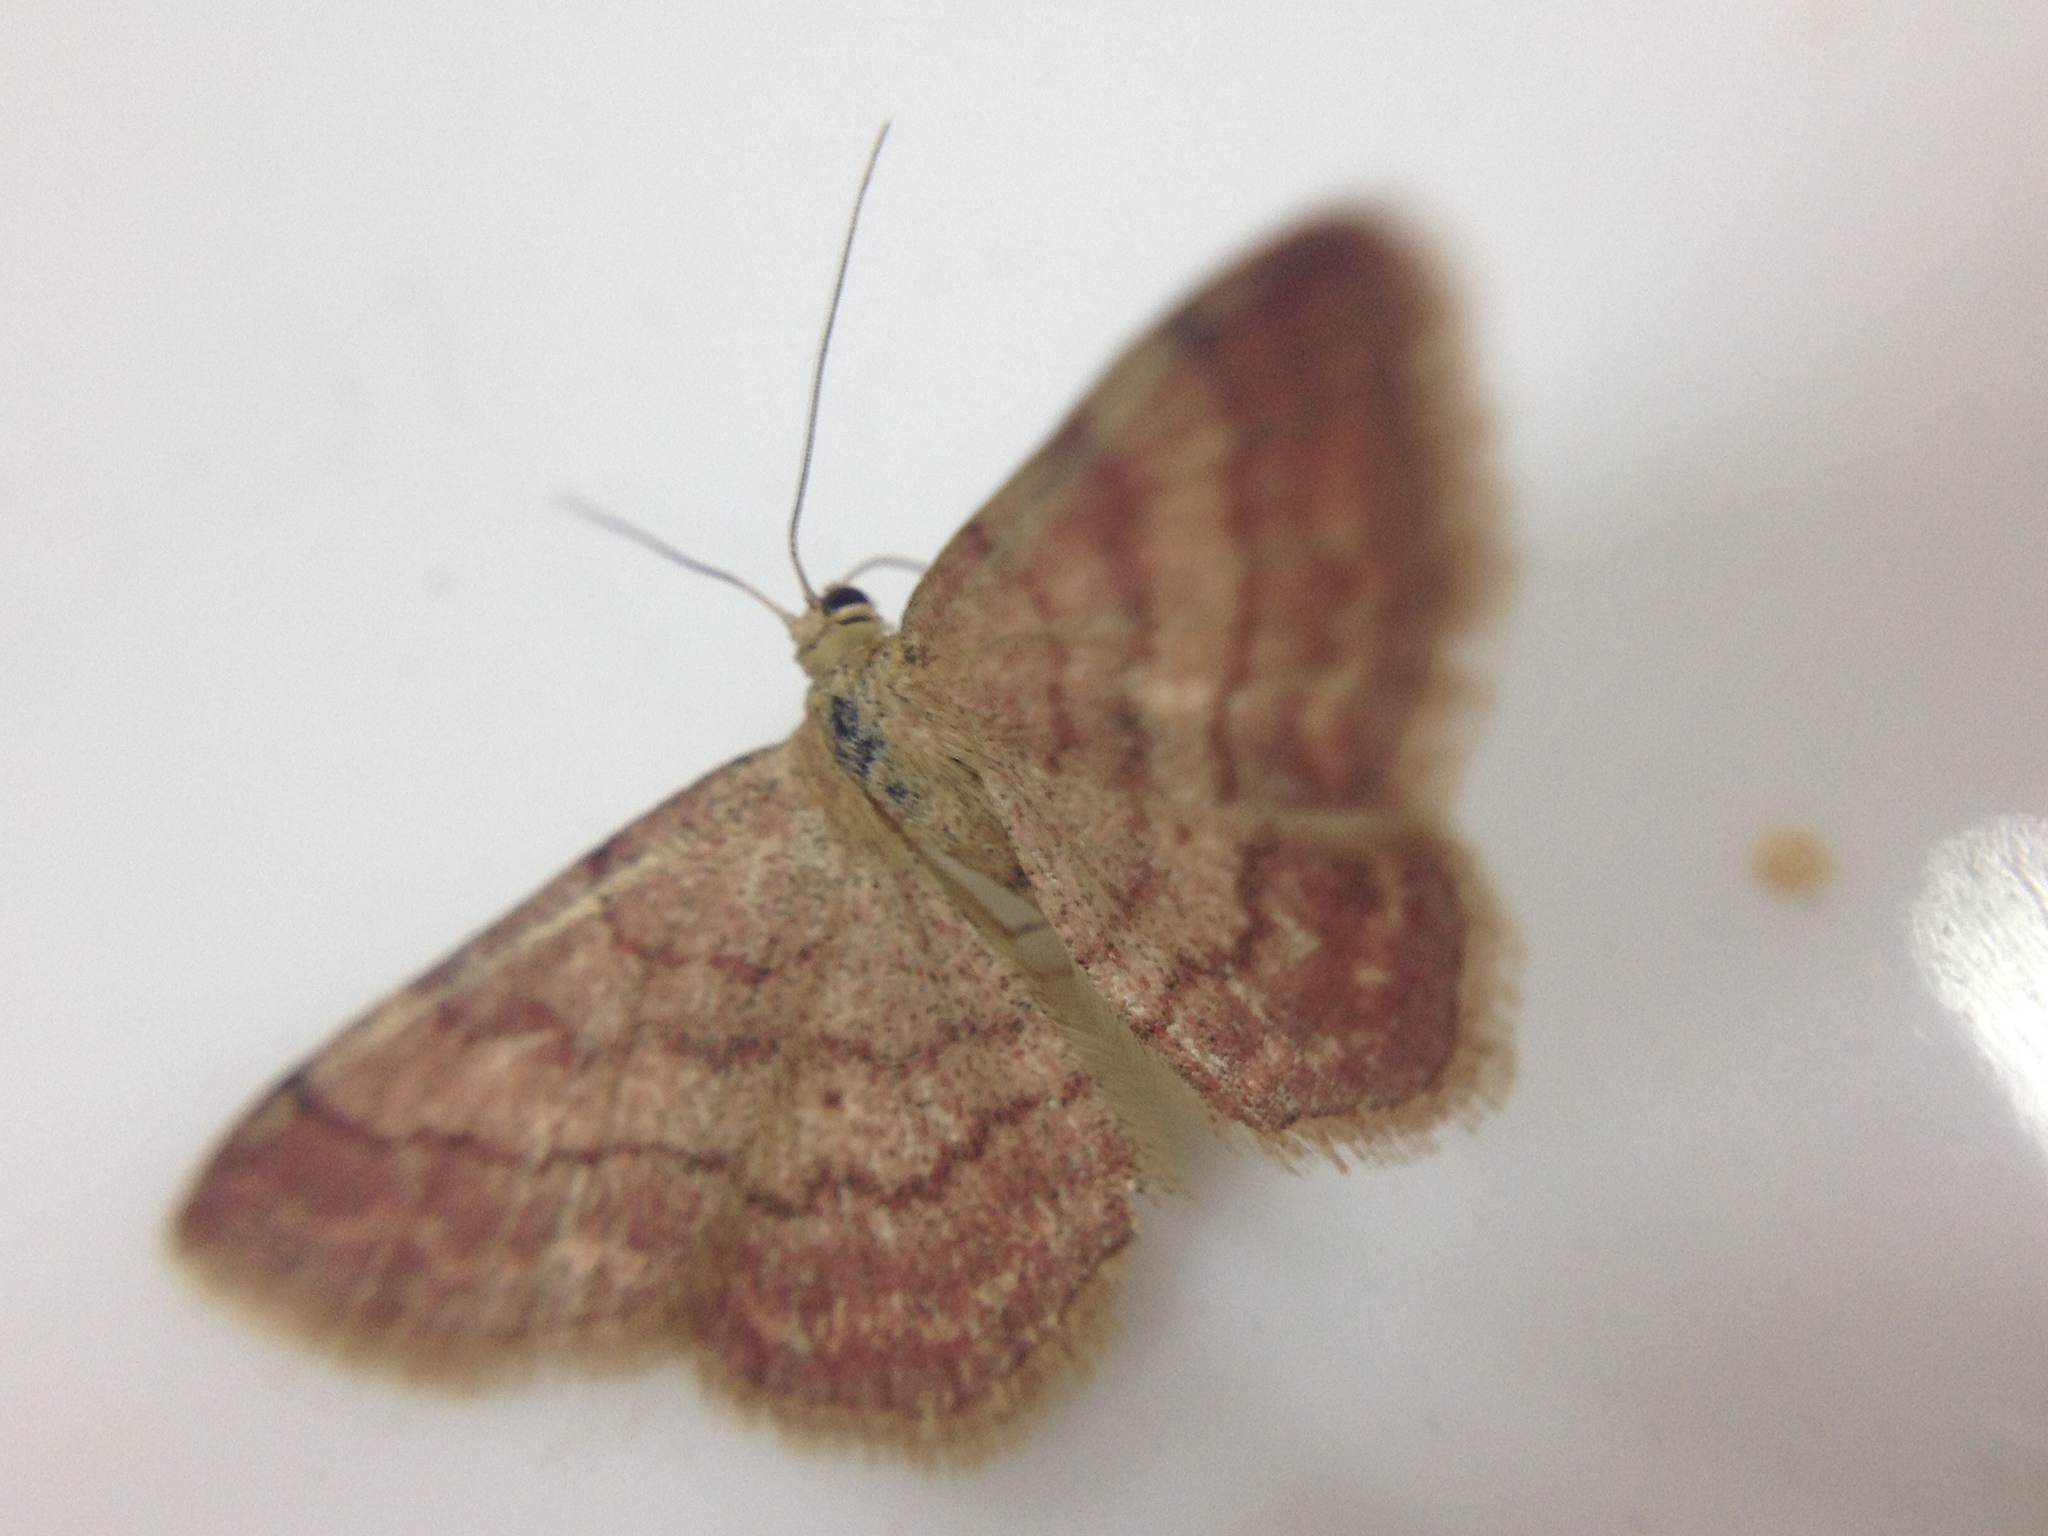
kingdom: Animalia
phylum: Arthropoda
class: Insecta
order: Lepidoptera
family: Geometridae
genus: Scopula
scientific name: Scopula rubiginata
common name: Tawny wave
